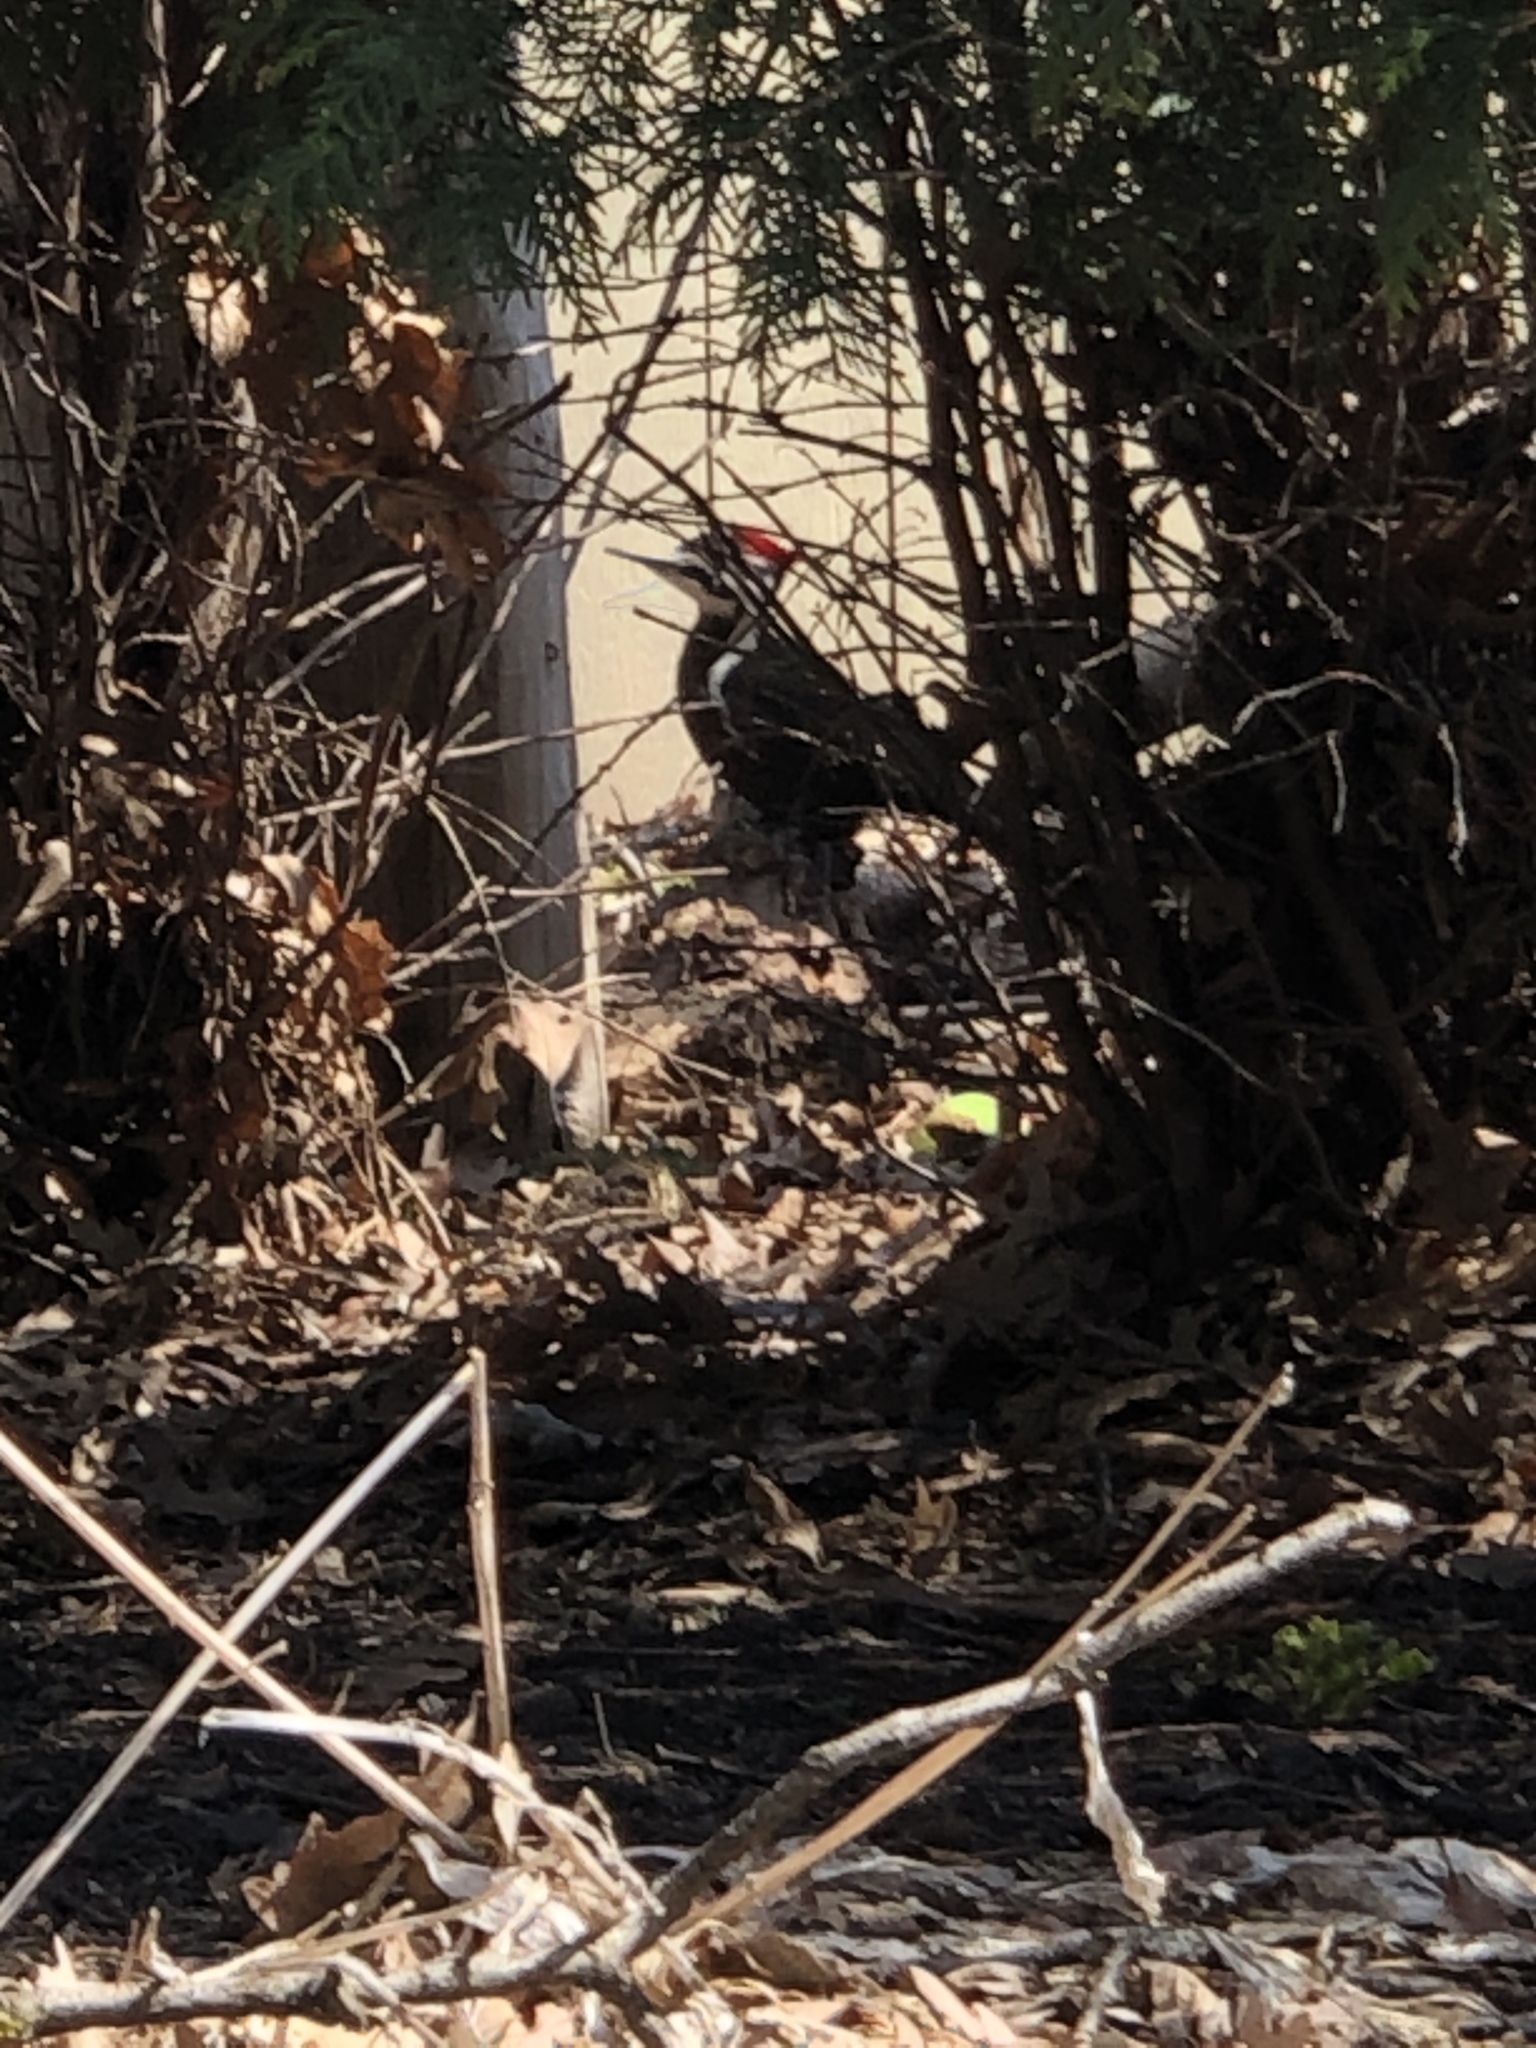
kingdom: Animalia
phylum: Chordata
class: Aves
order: Piciformes
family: Picidae
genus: Dryocopus
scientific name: Dryocopus pileatus
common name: Pileated woodpecker
